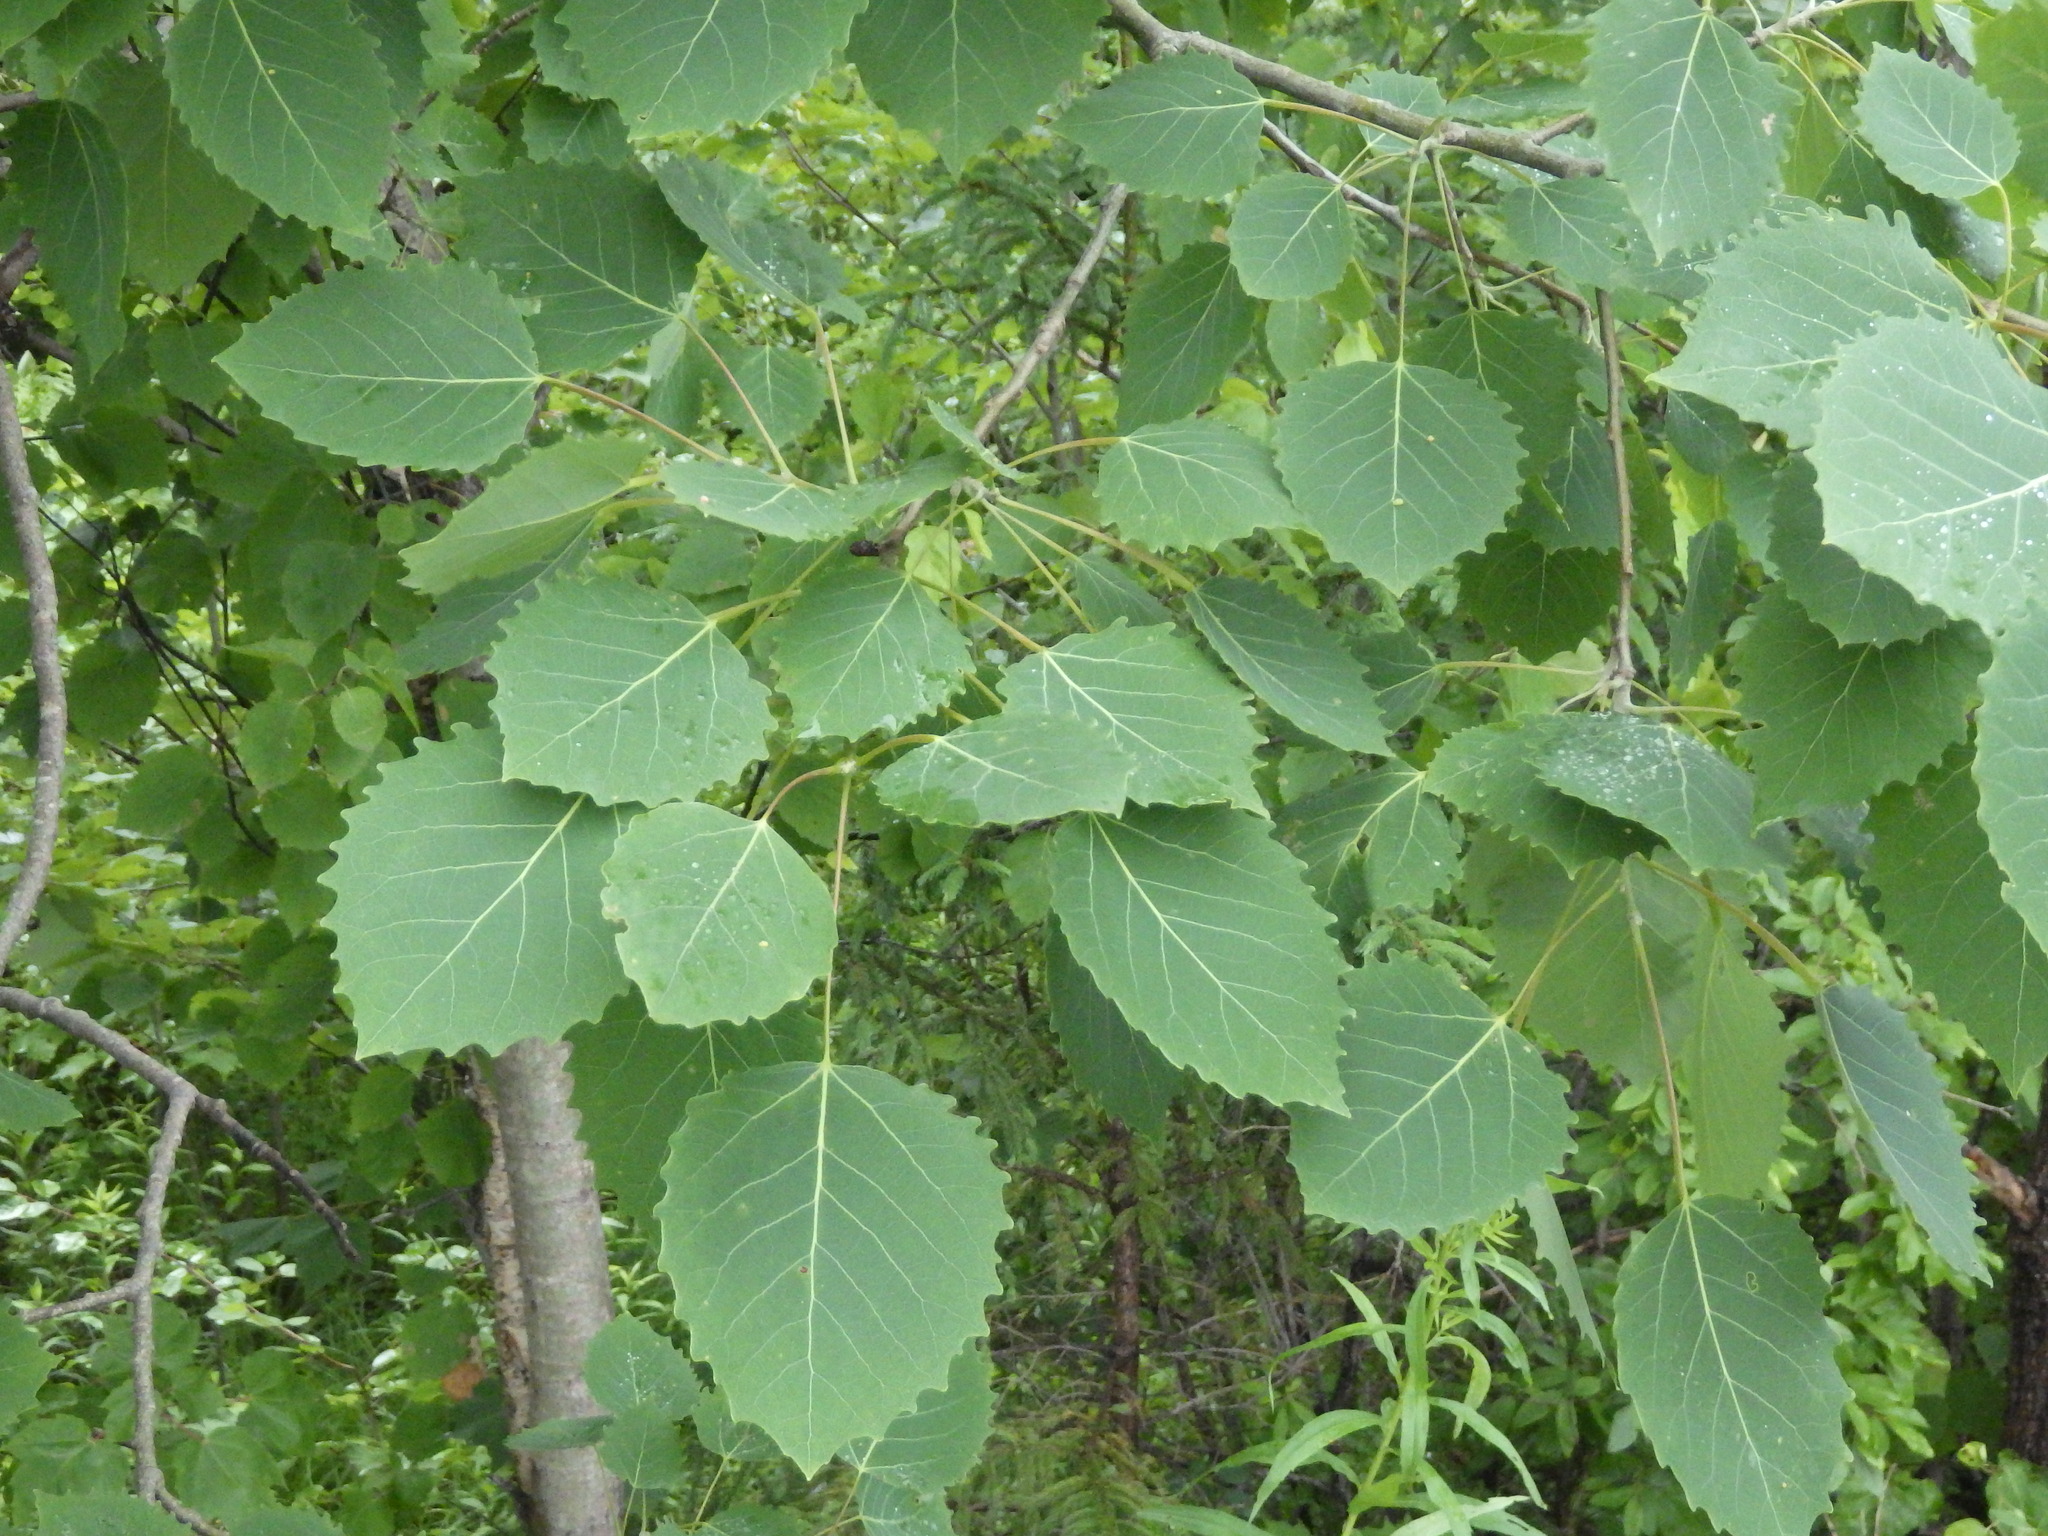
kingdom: Plantae
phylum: Tracheophyta
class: Magnoliopsida
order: Malpighiales
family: Salicaceae
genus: Populus
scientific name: Populus grandidentata
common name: Bigtooth aspen
